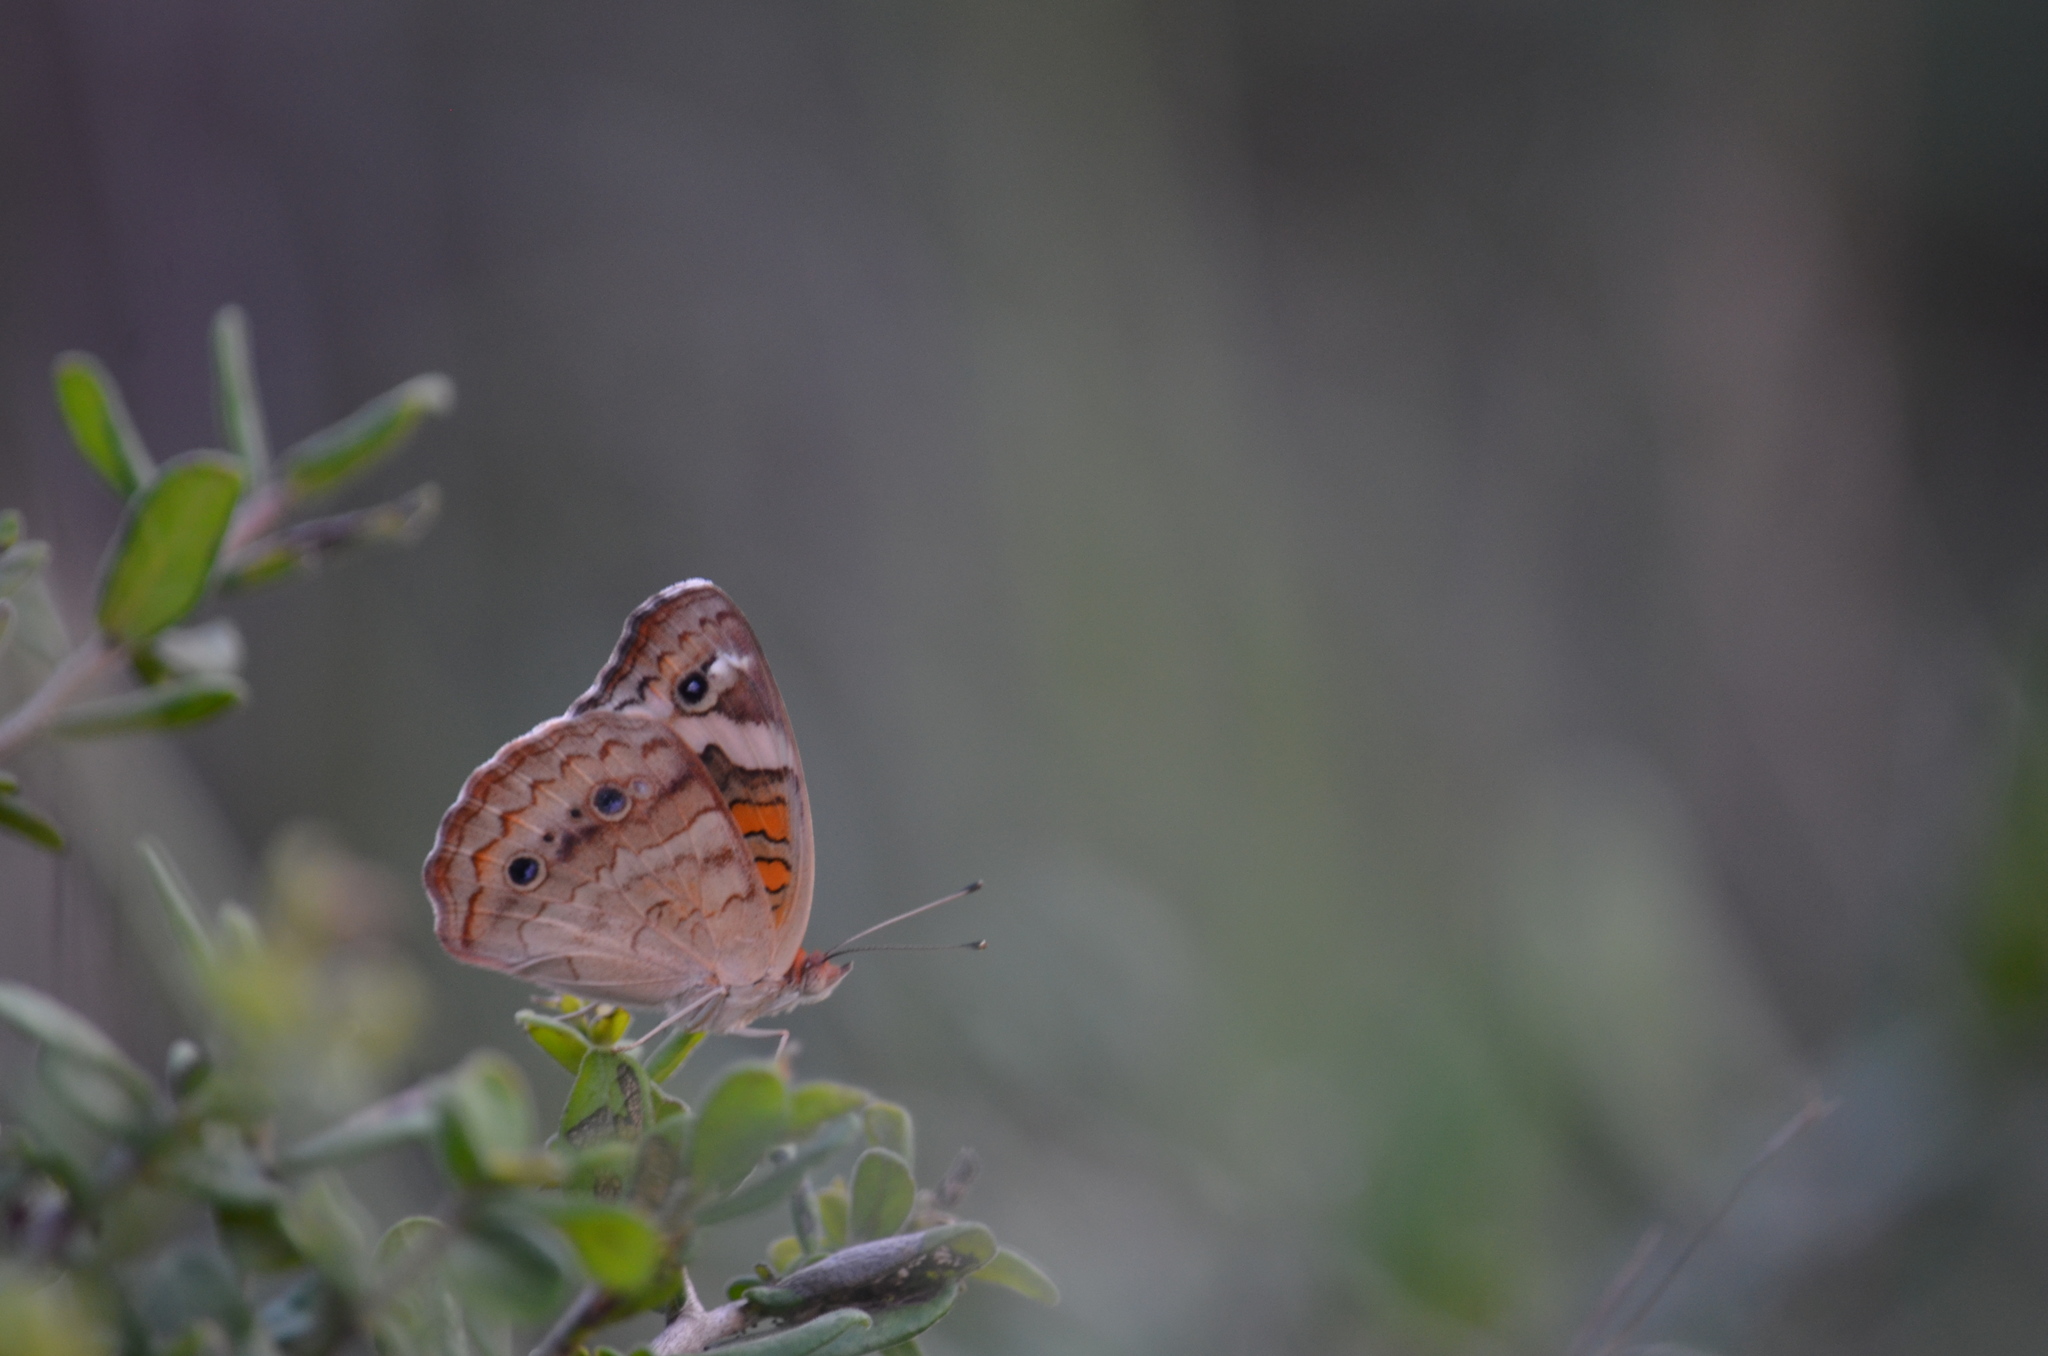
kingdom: Animalia
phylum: Arthropoda
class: Insecta
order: Lepidoptera
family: Nymphalidae
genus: Junonia
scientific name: Junonia coenia
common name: Common buckeye
